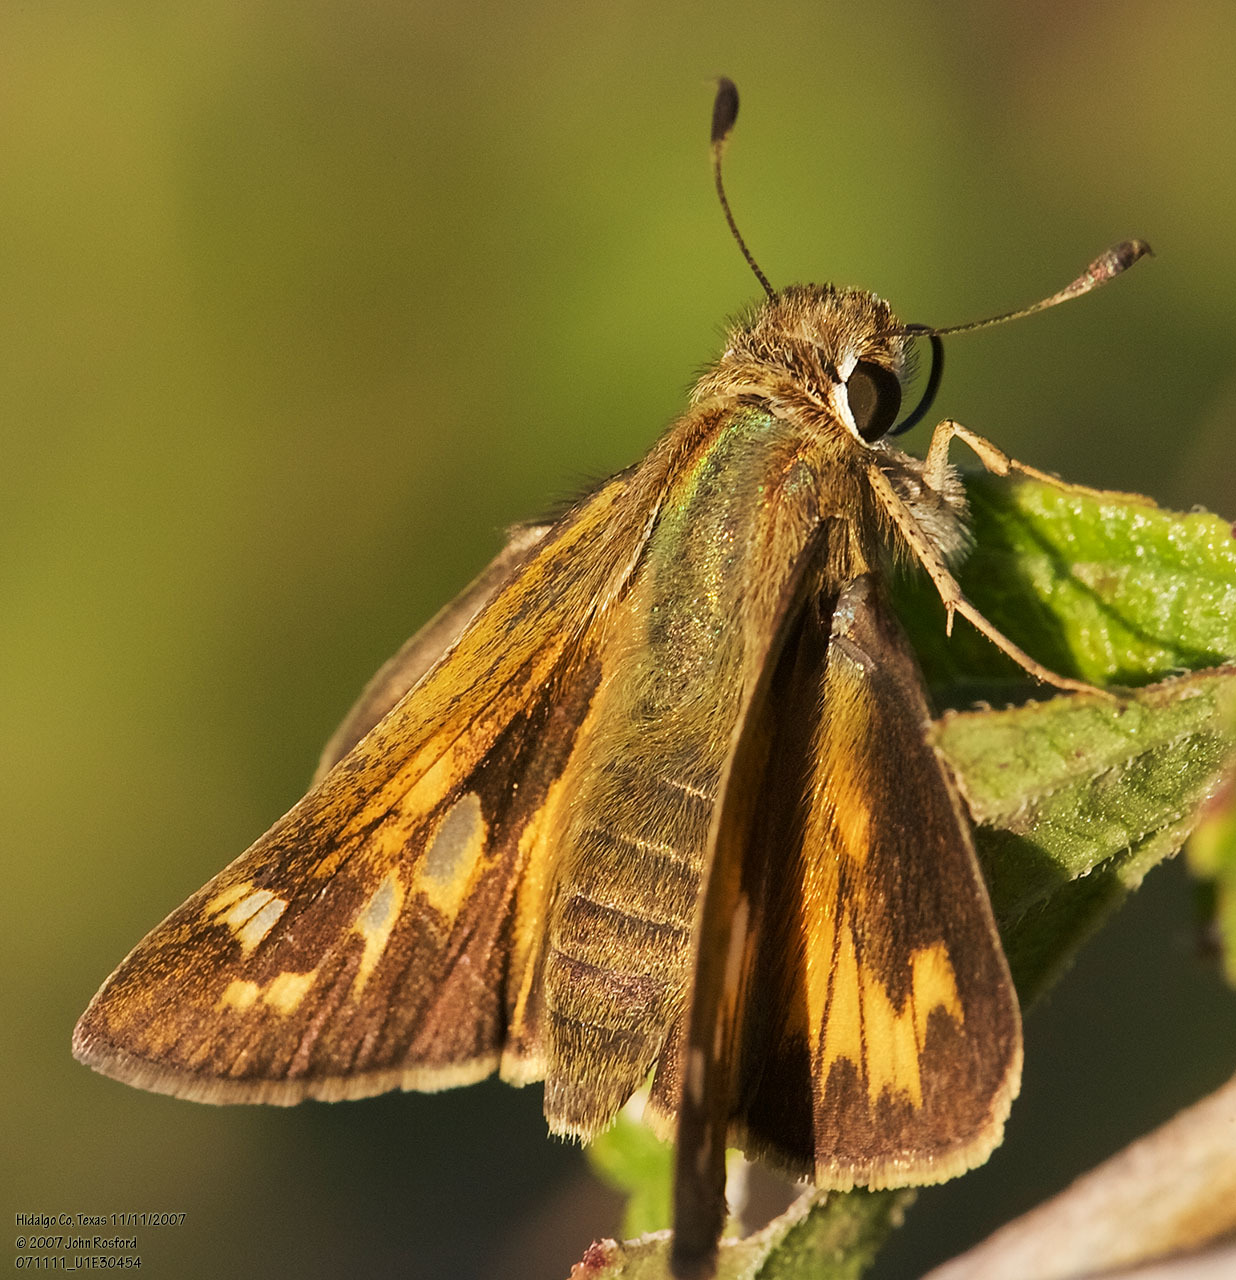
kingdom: Animalia
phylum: Arthropoda
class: Insecta
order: Lepidoptera
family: Hesperiidae
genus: Atalopedes
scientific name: Atalopedes
